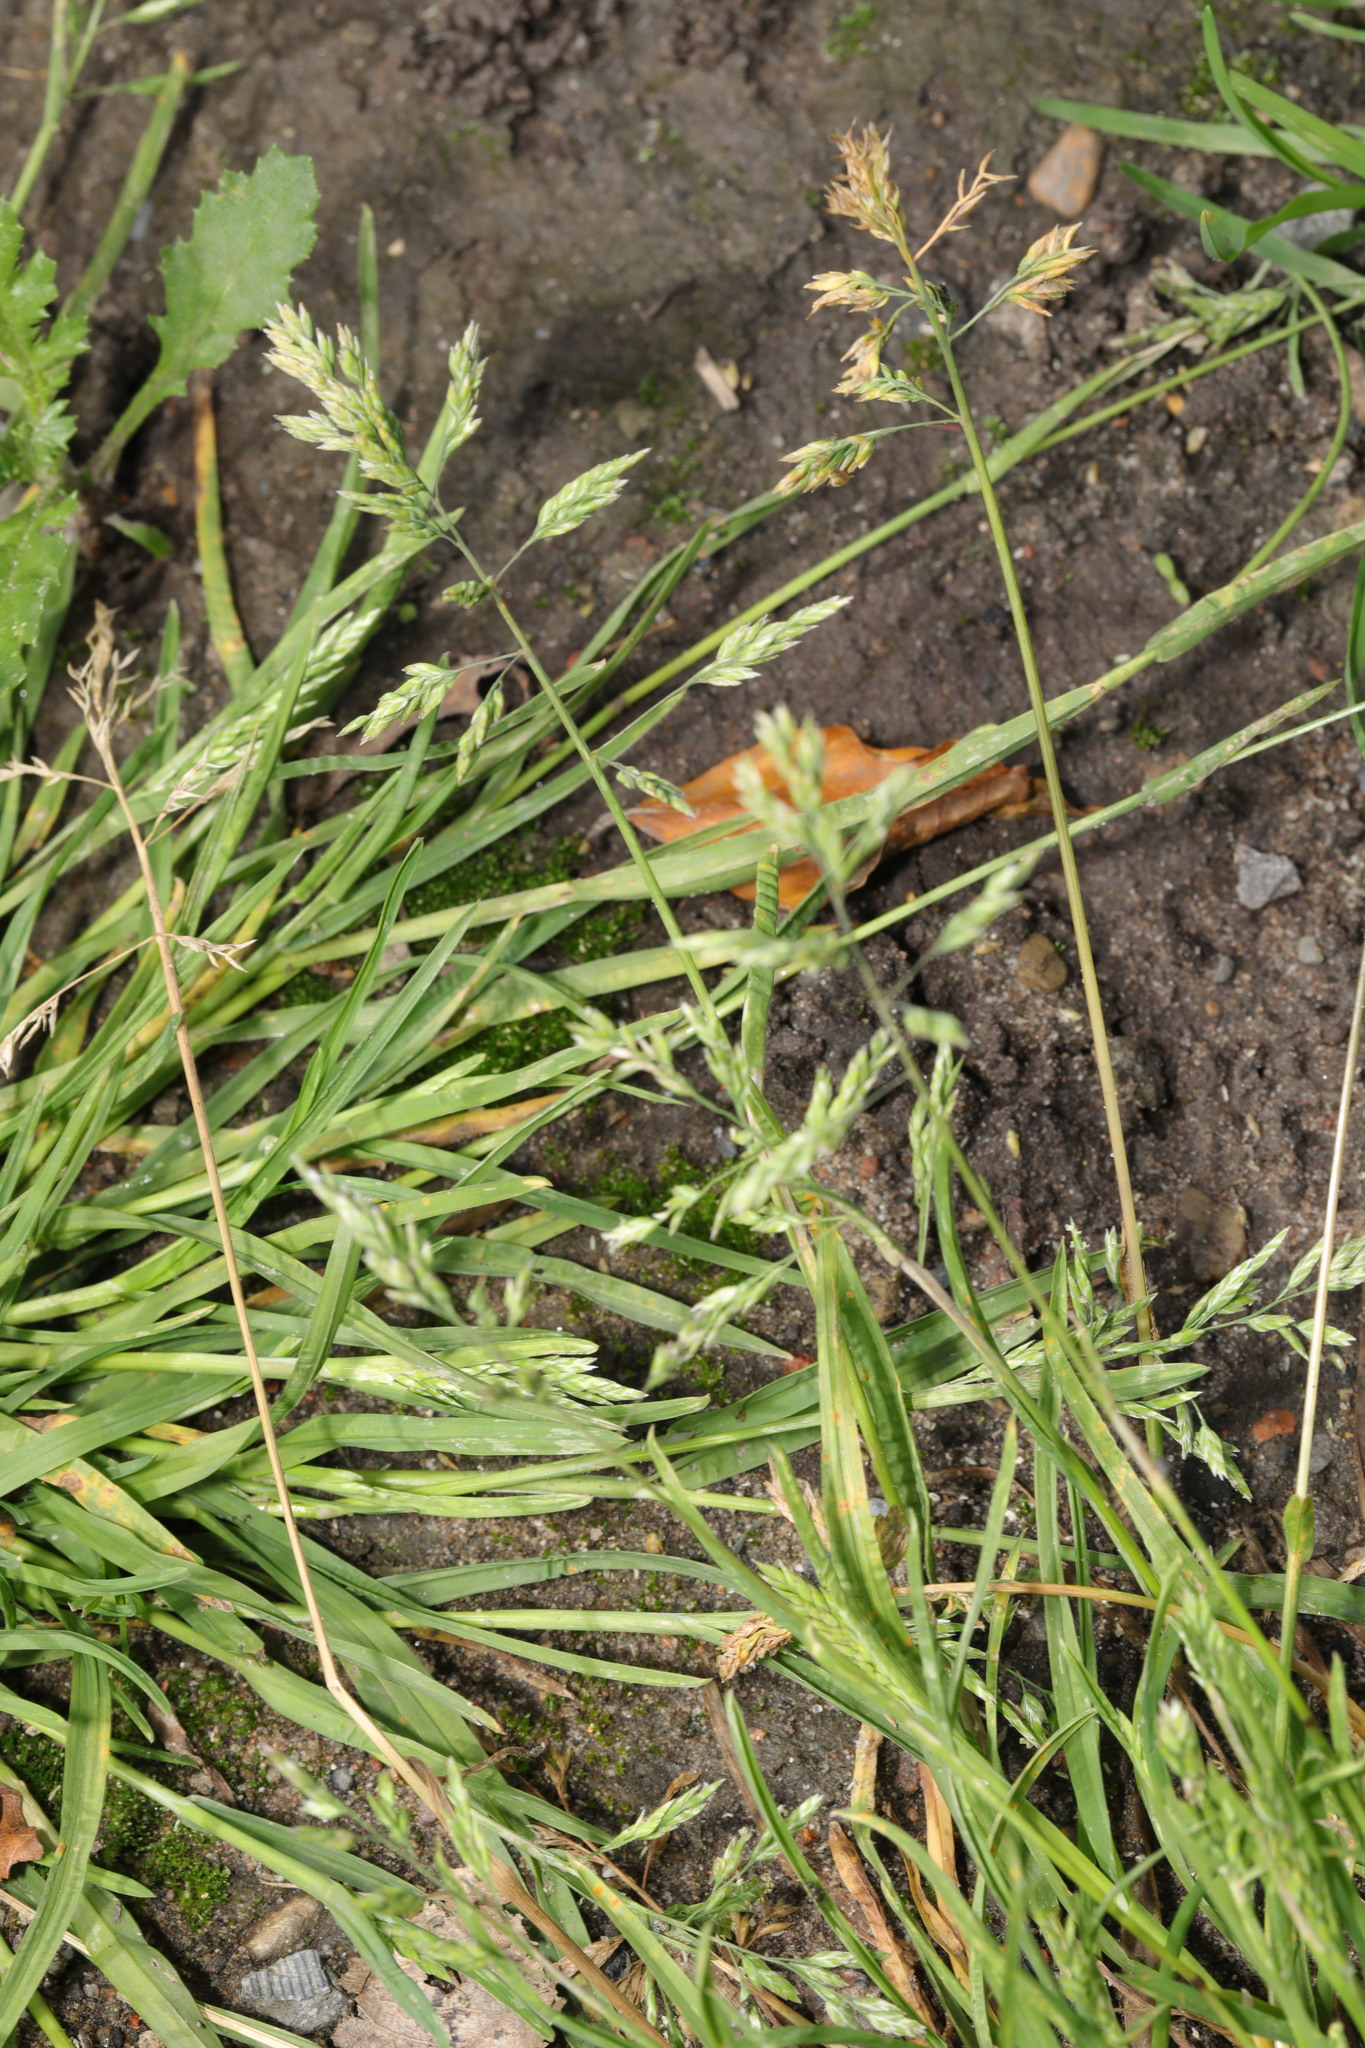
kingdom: Plantae
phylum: Tracheophyta
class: Liliopsida
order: Poales
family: Poaceae
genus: Poa
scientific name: Poa annua
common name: Annual bluegrass
